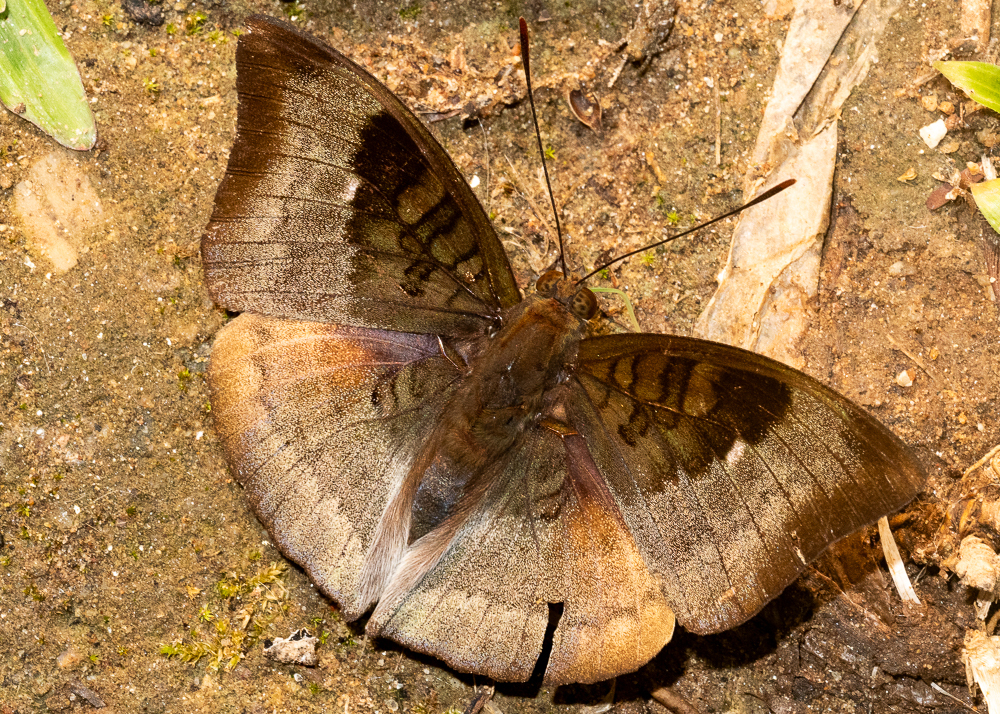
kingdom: Animalia
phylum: Arthropoda
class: Insecta
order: Lepidoptera
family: Nymphalidae
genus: Euthalia
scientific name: Euthalia monina
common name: Powdered baron
